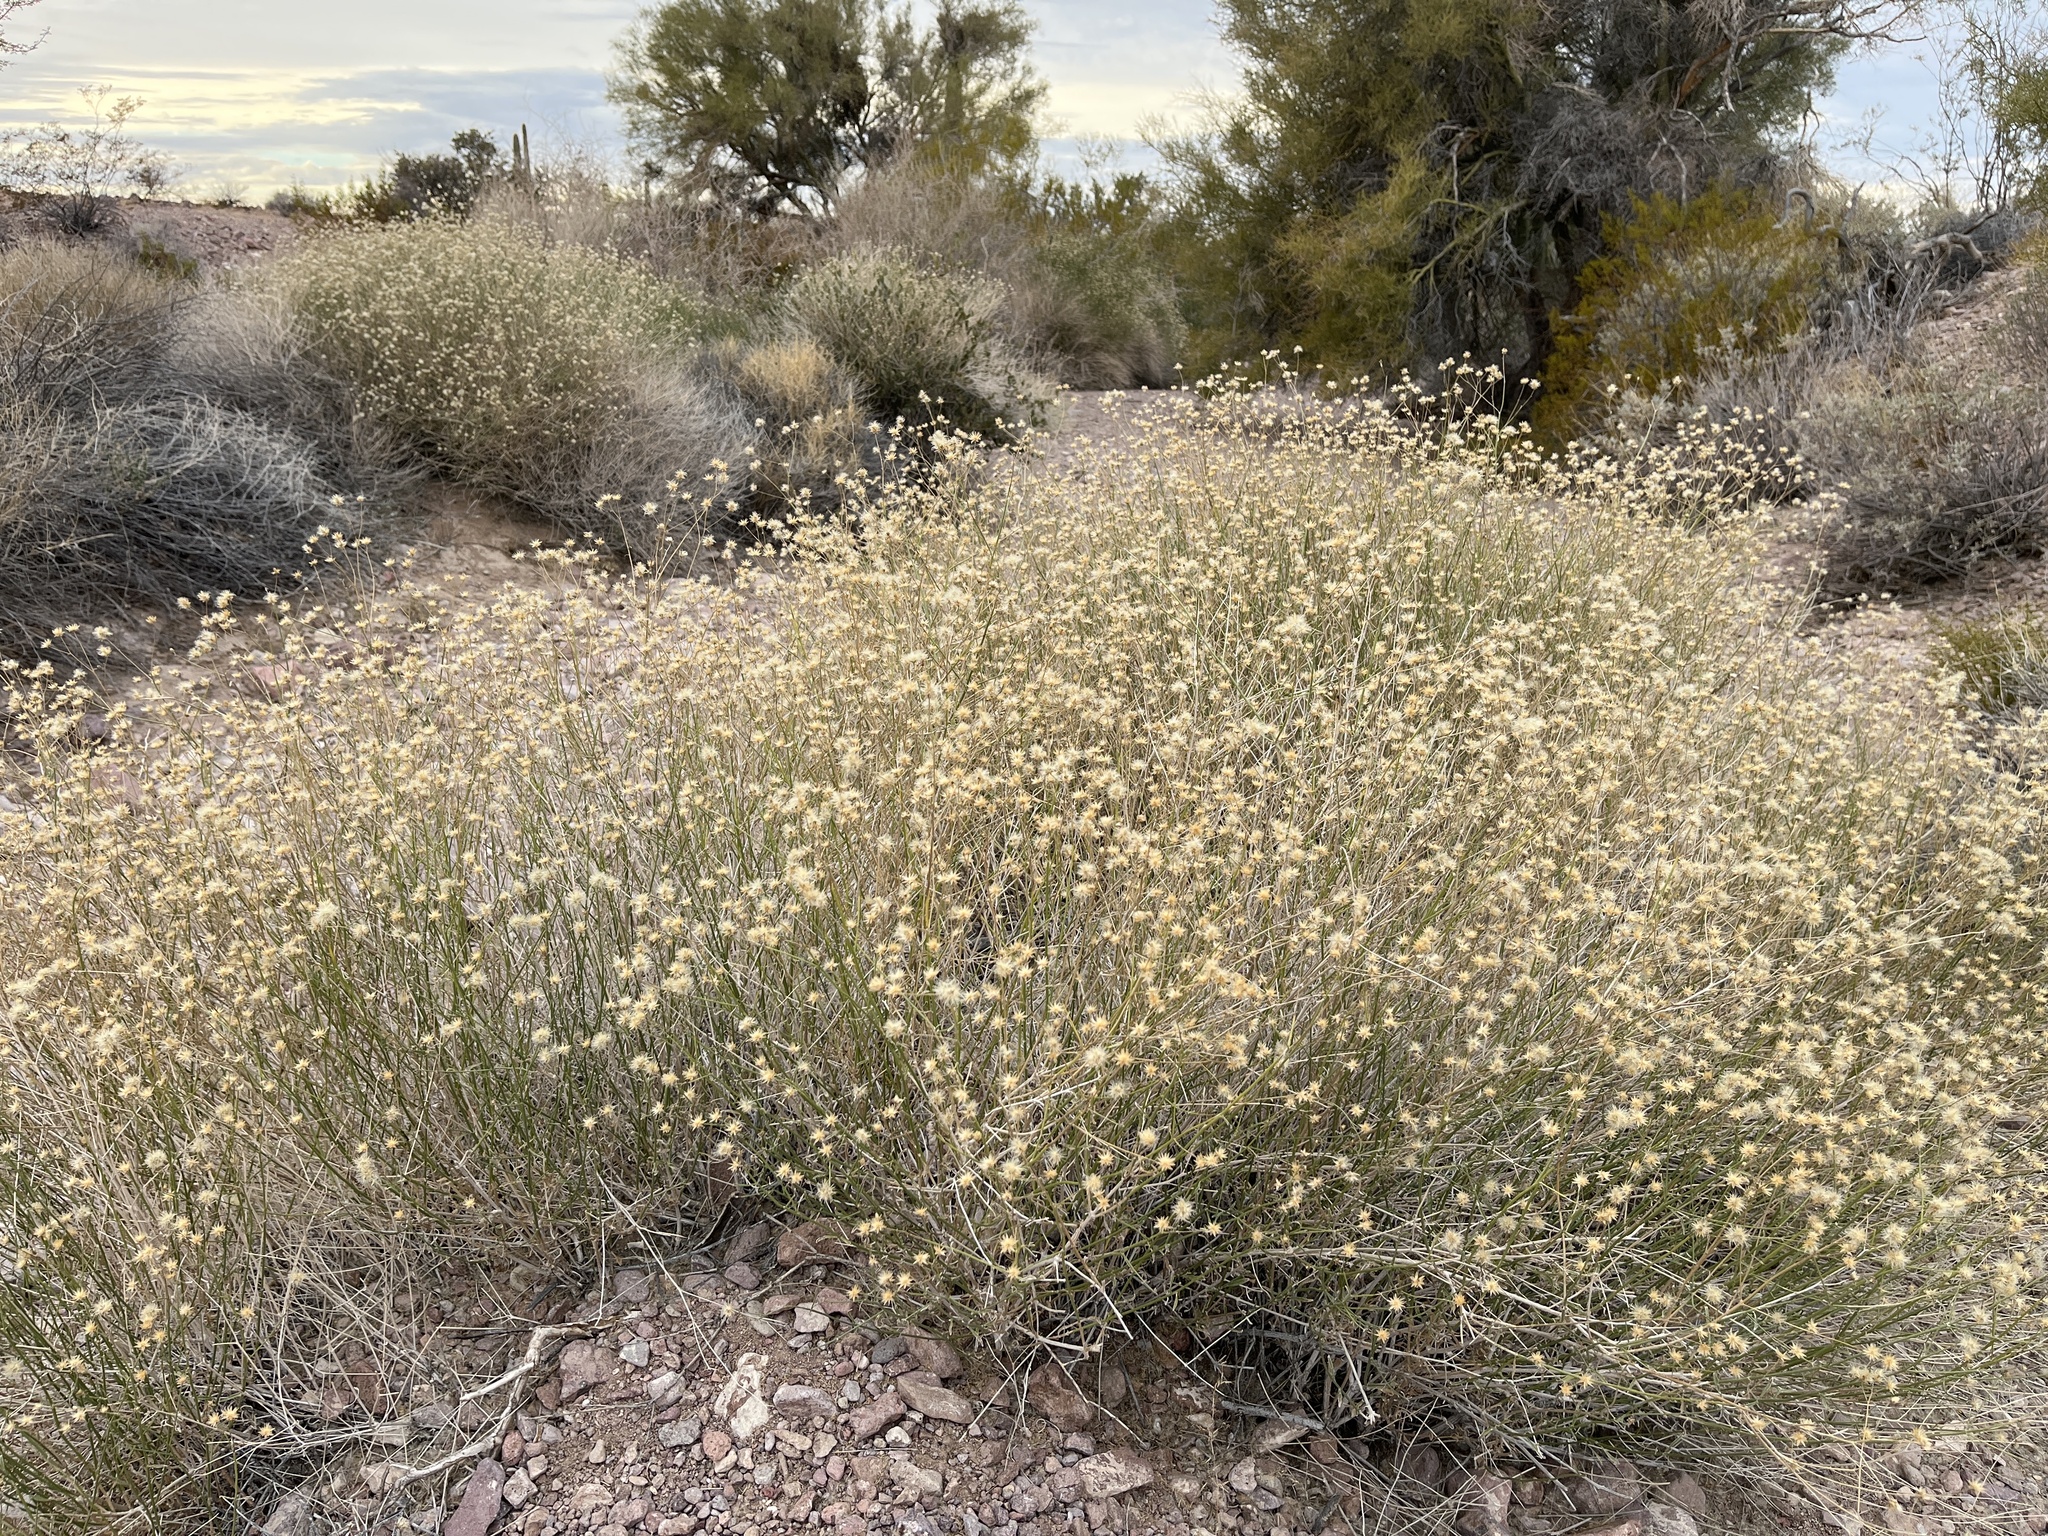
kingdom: Plantae
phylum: Tracheophyta
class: Magnoliopsida
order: Asterales
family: Asteraceae
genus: Bebbia
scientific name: Bebbia juncea
